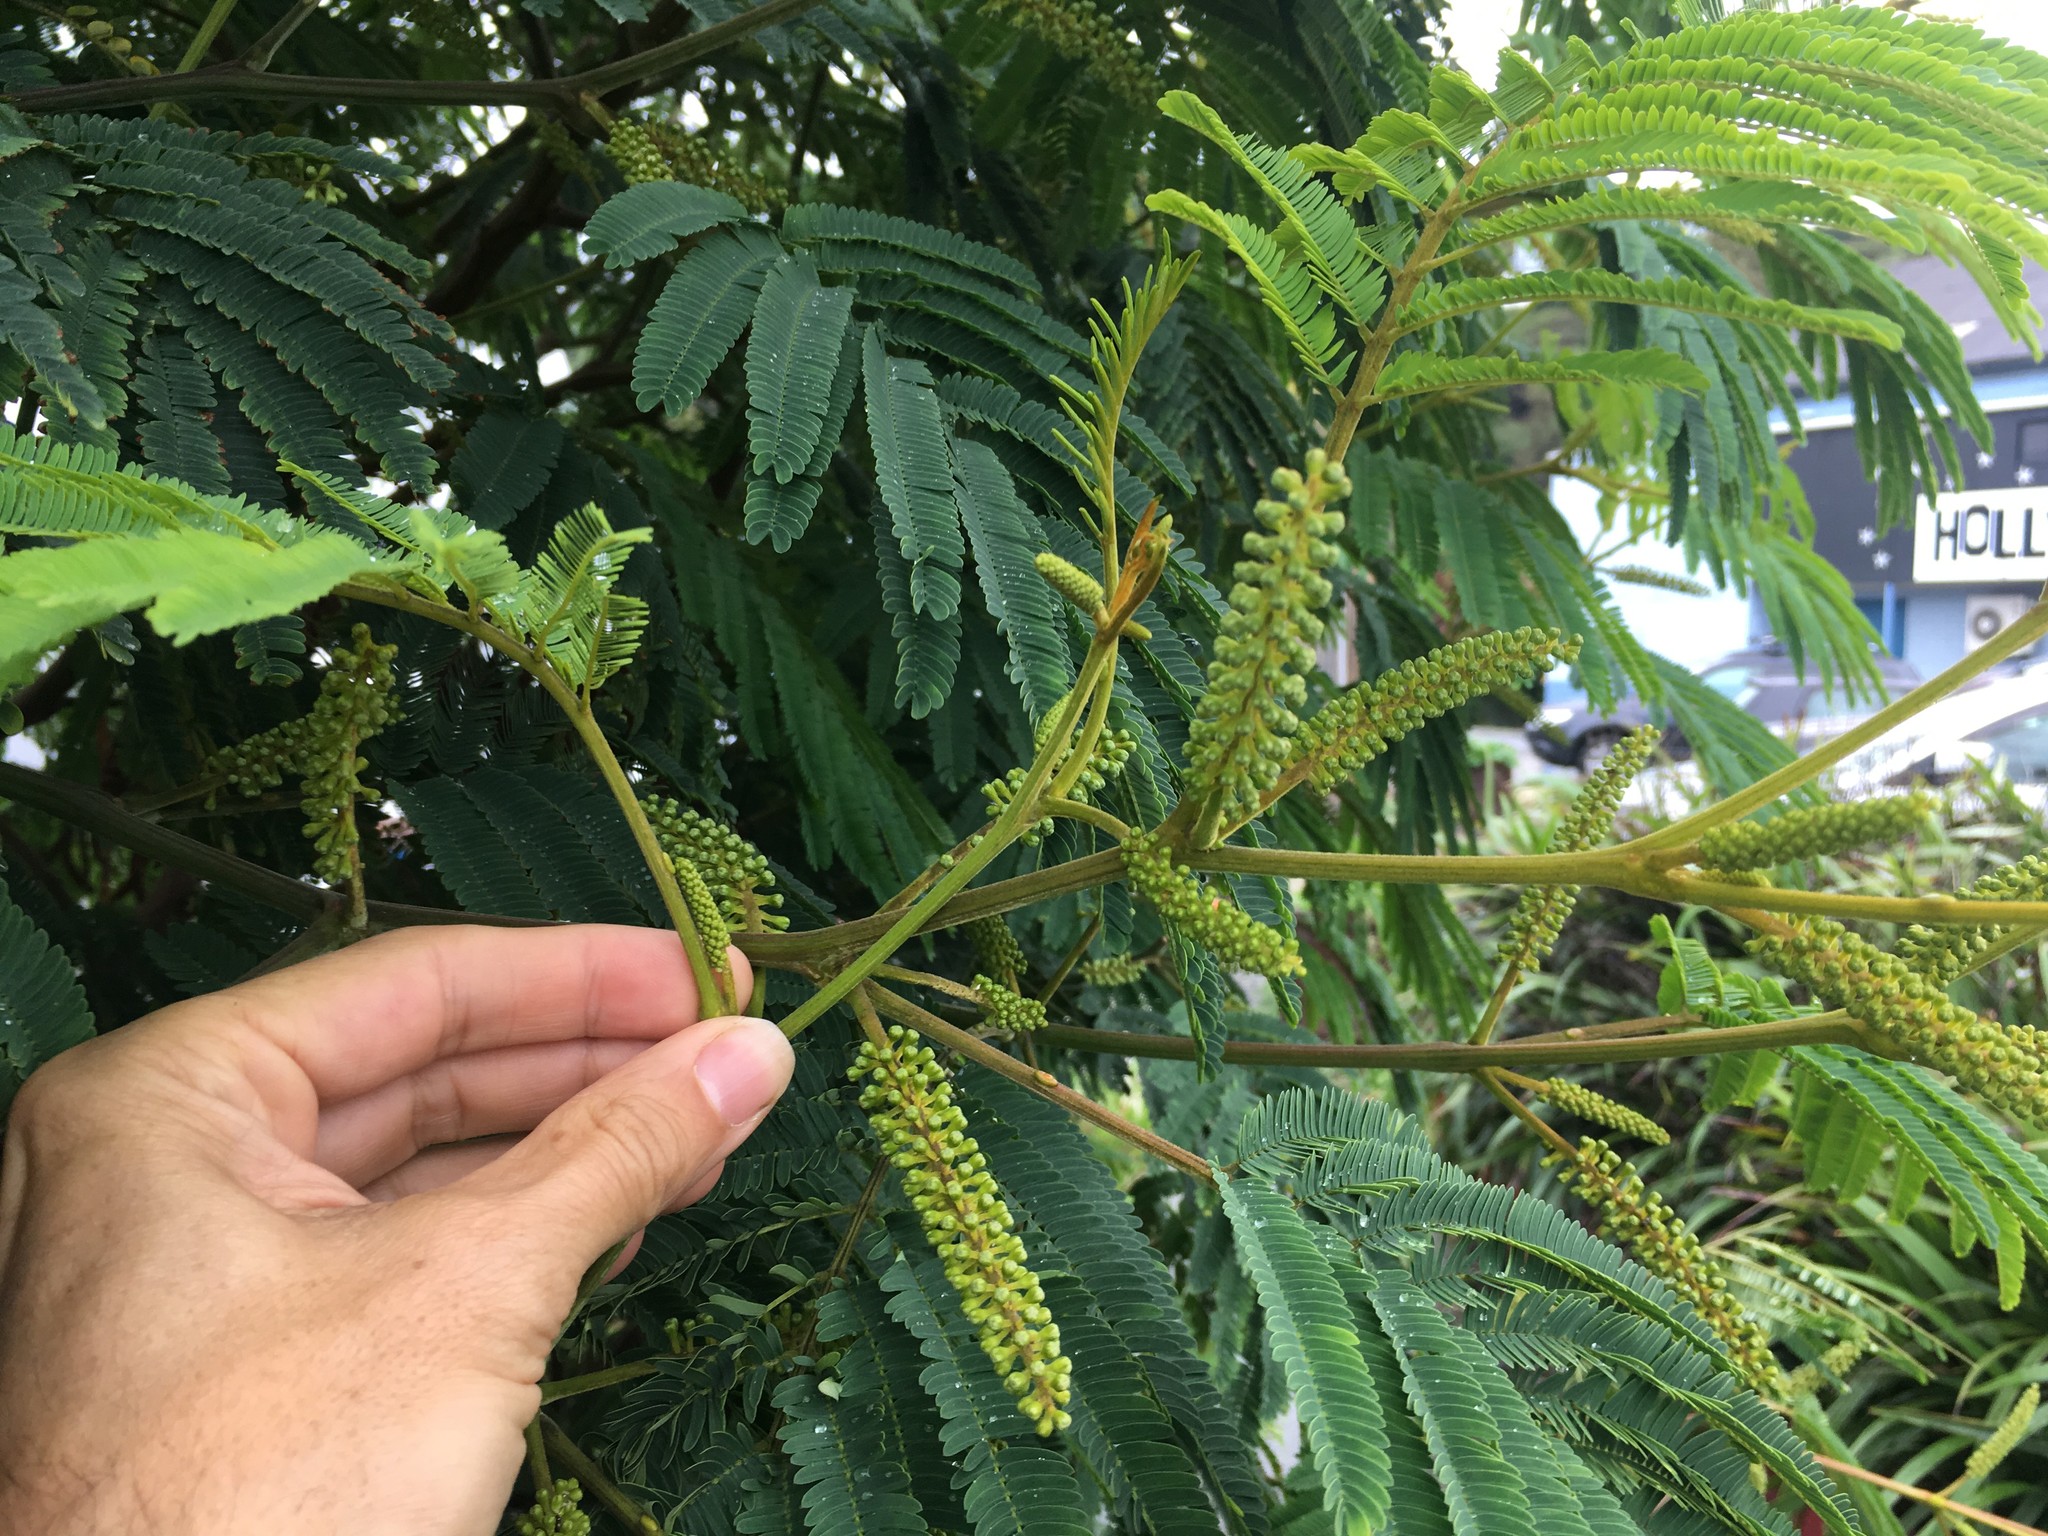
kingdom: Plantae
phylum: Tracheophyta
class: Magnoliopsida
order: Fabales
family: Fabaceae
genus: Paraserianthes
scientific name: Paraserianthes lophantha
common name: Plume albizia
